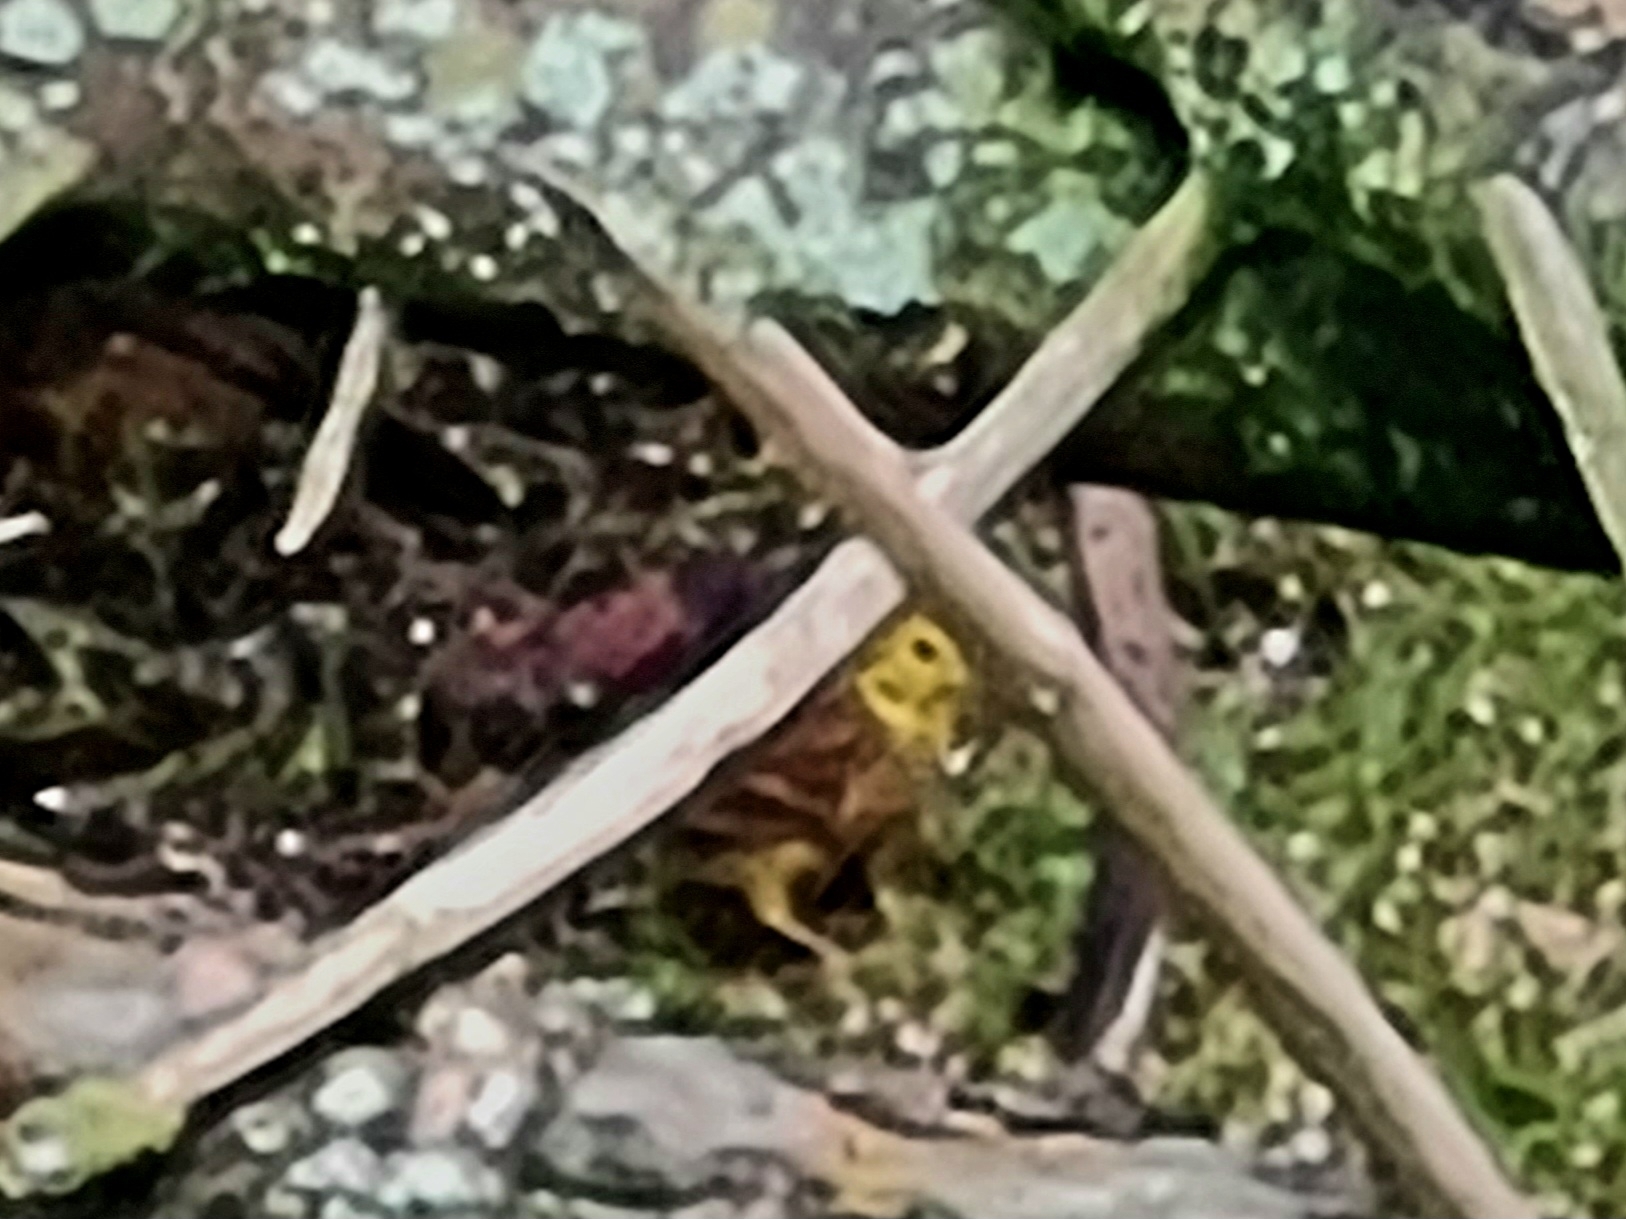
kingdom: Animalia
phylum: Chordata
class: Aves
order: Passeriformes
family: Emberizidae
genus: Emberiza
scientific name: Emberiza citrinella
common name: Yellowhammer
